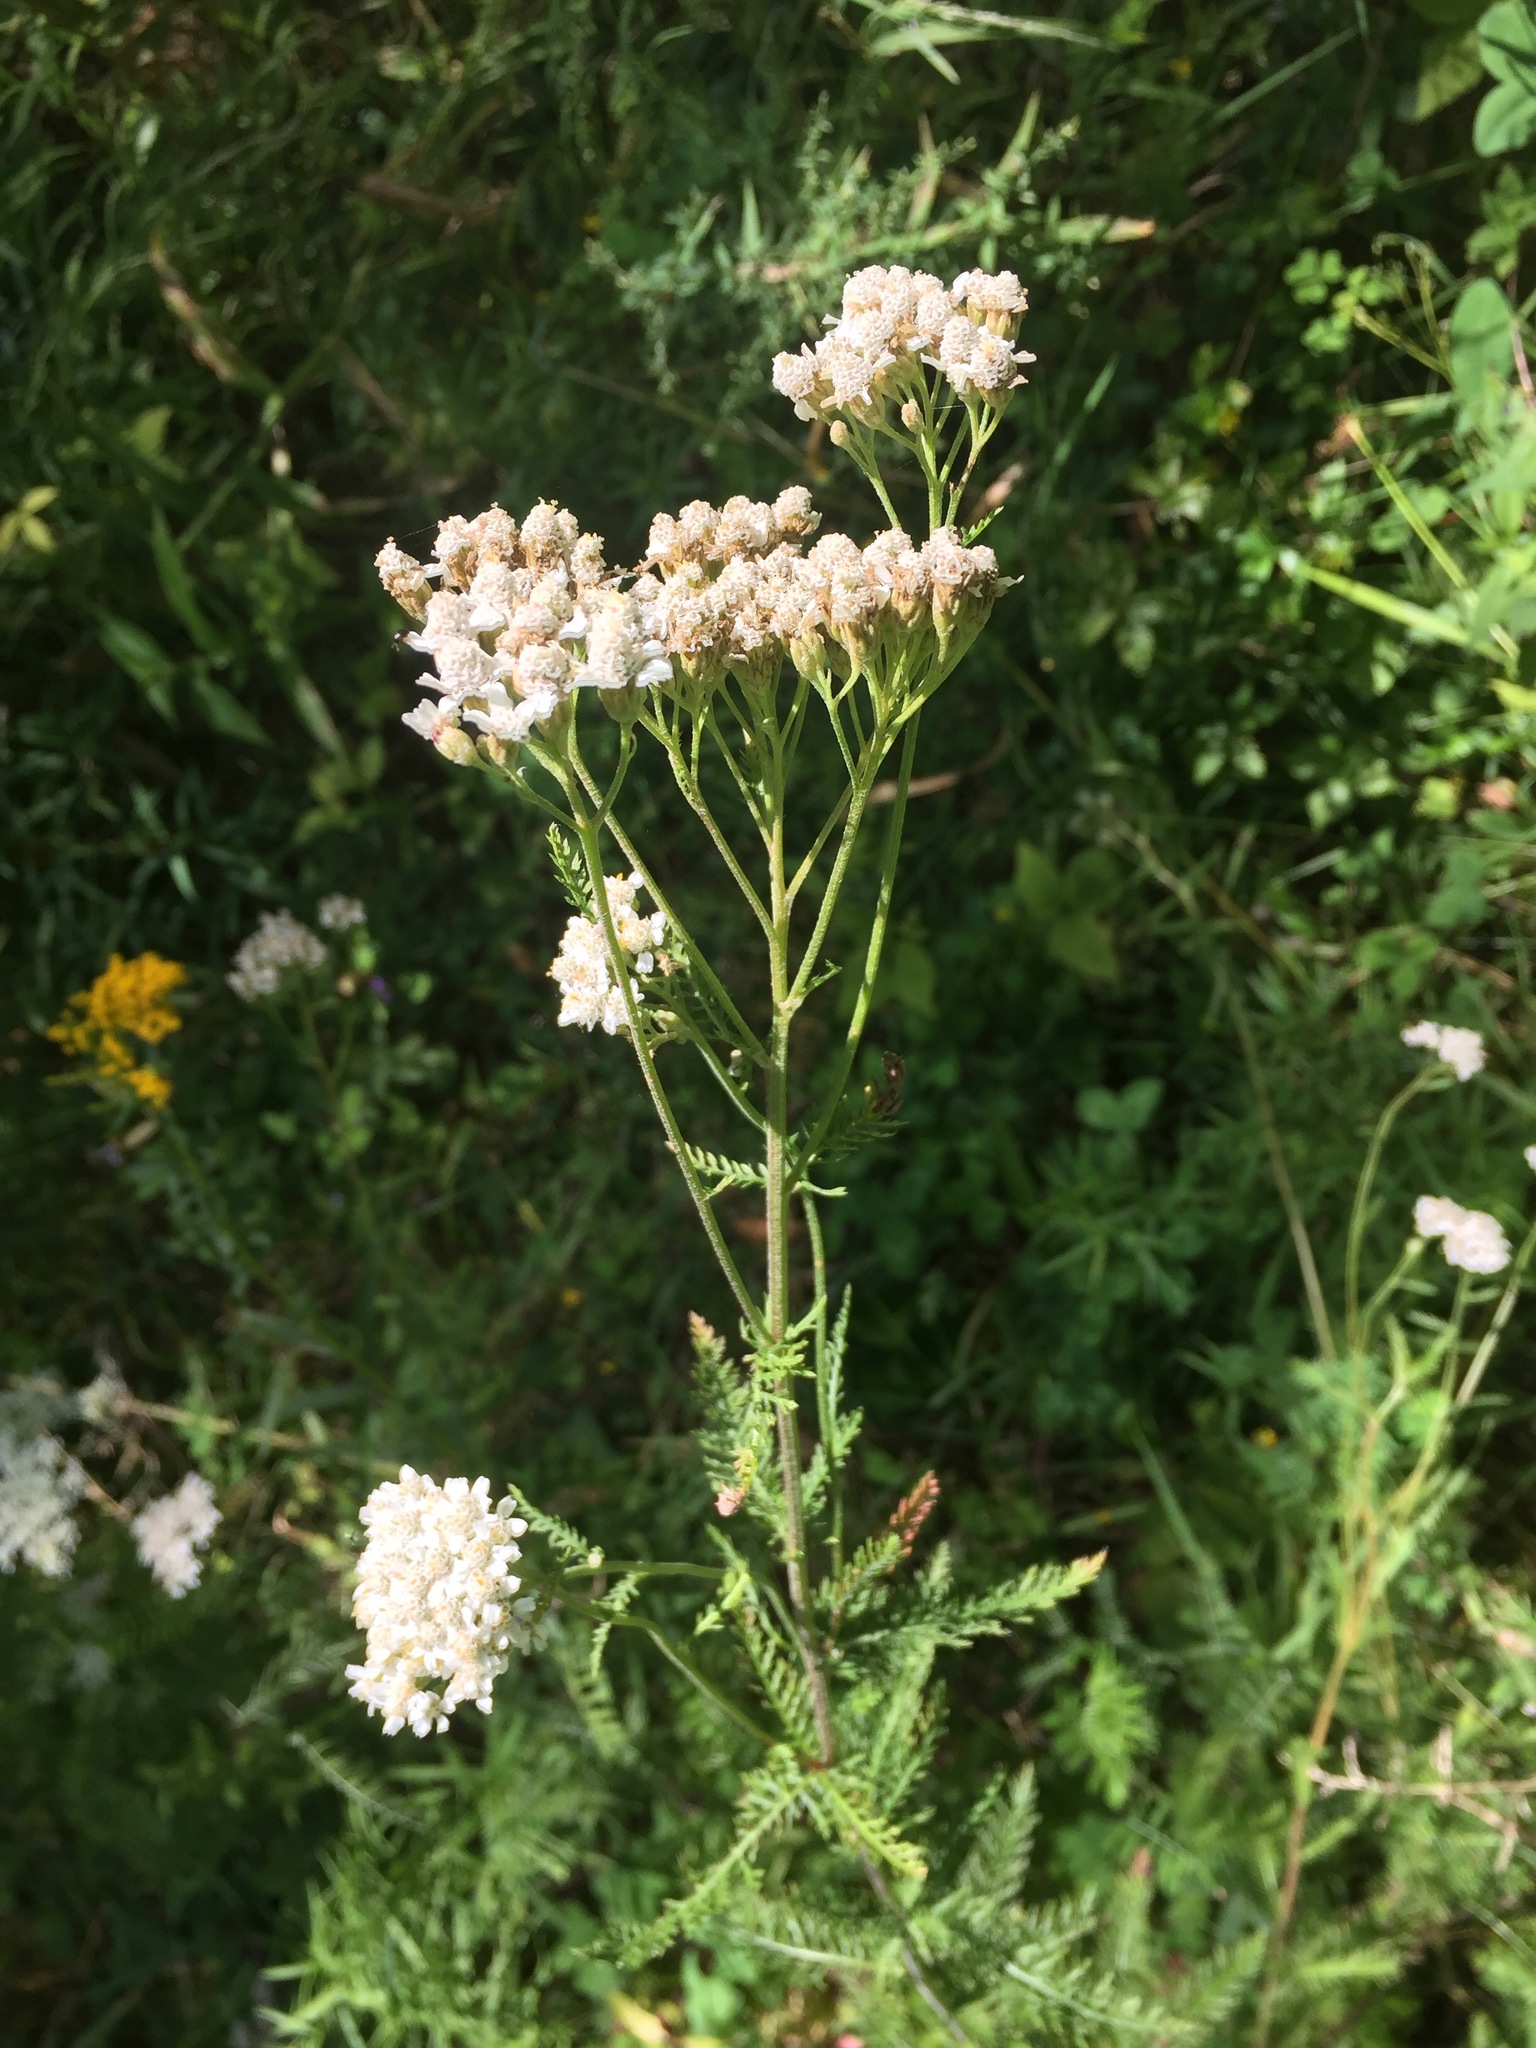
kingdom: Plantae
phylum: Tracheophyta
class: Magnoliopsida
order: Asterales
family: Asteraceae
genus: Achillea
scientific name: Achillea millefolium
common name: Yarrow
